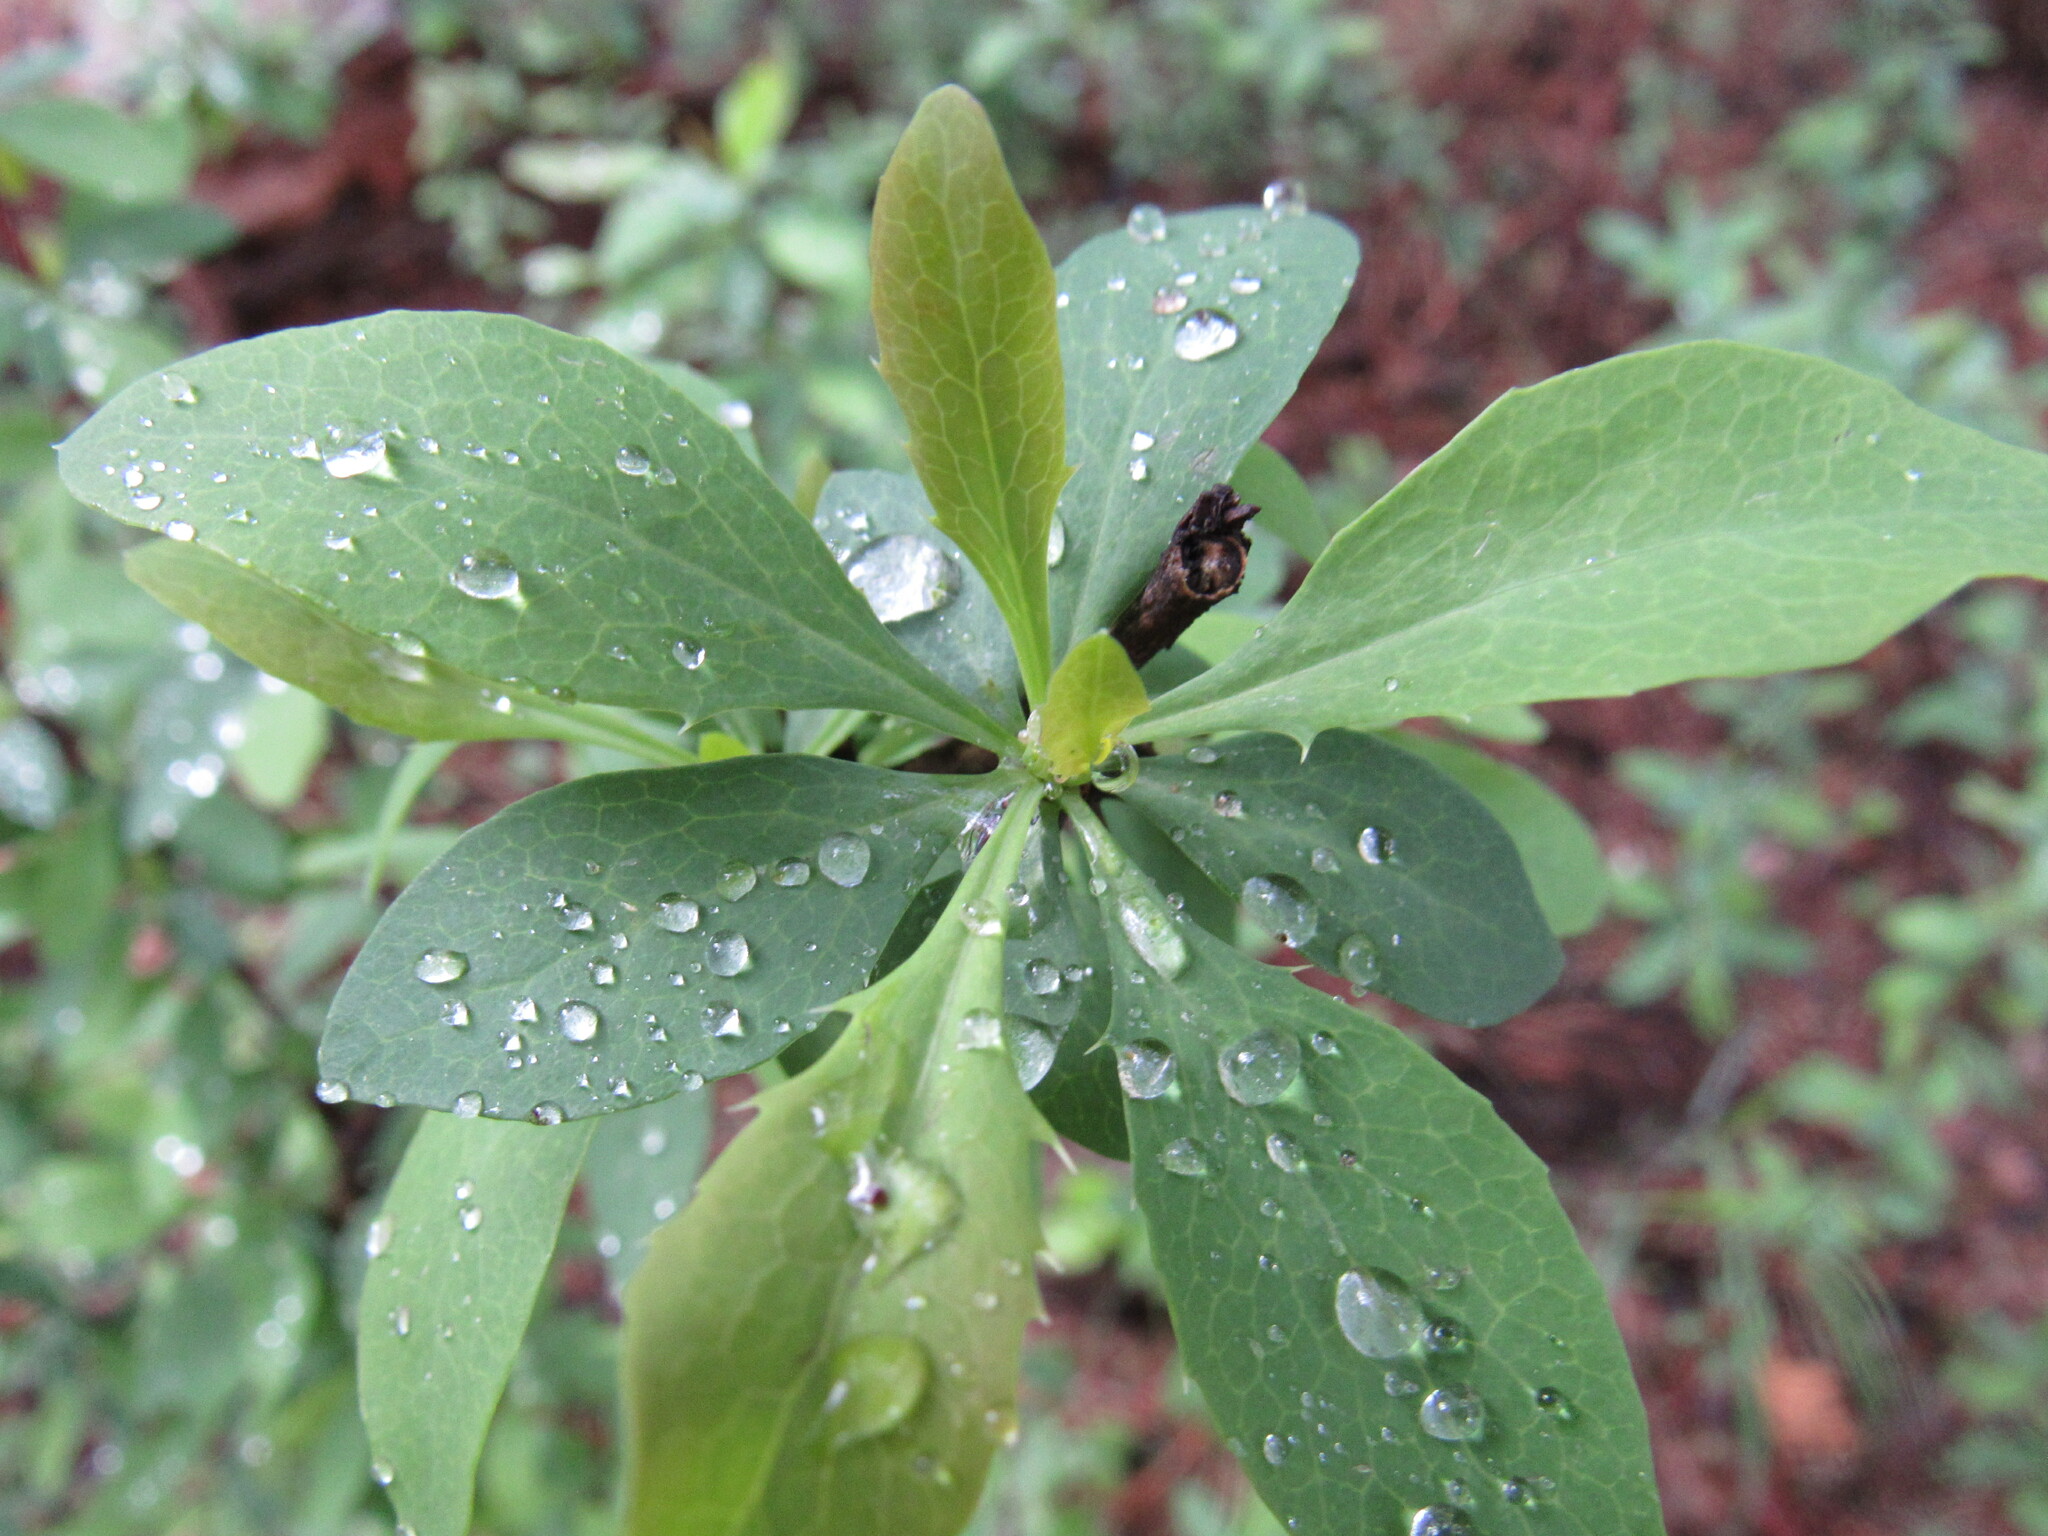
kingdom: Plantae
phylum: Tracheophyta
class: Magnoliopsida
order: Ranunculales
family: Berberidaceae
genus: Berberis
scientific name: Berberis fendleri
